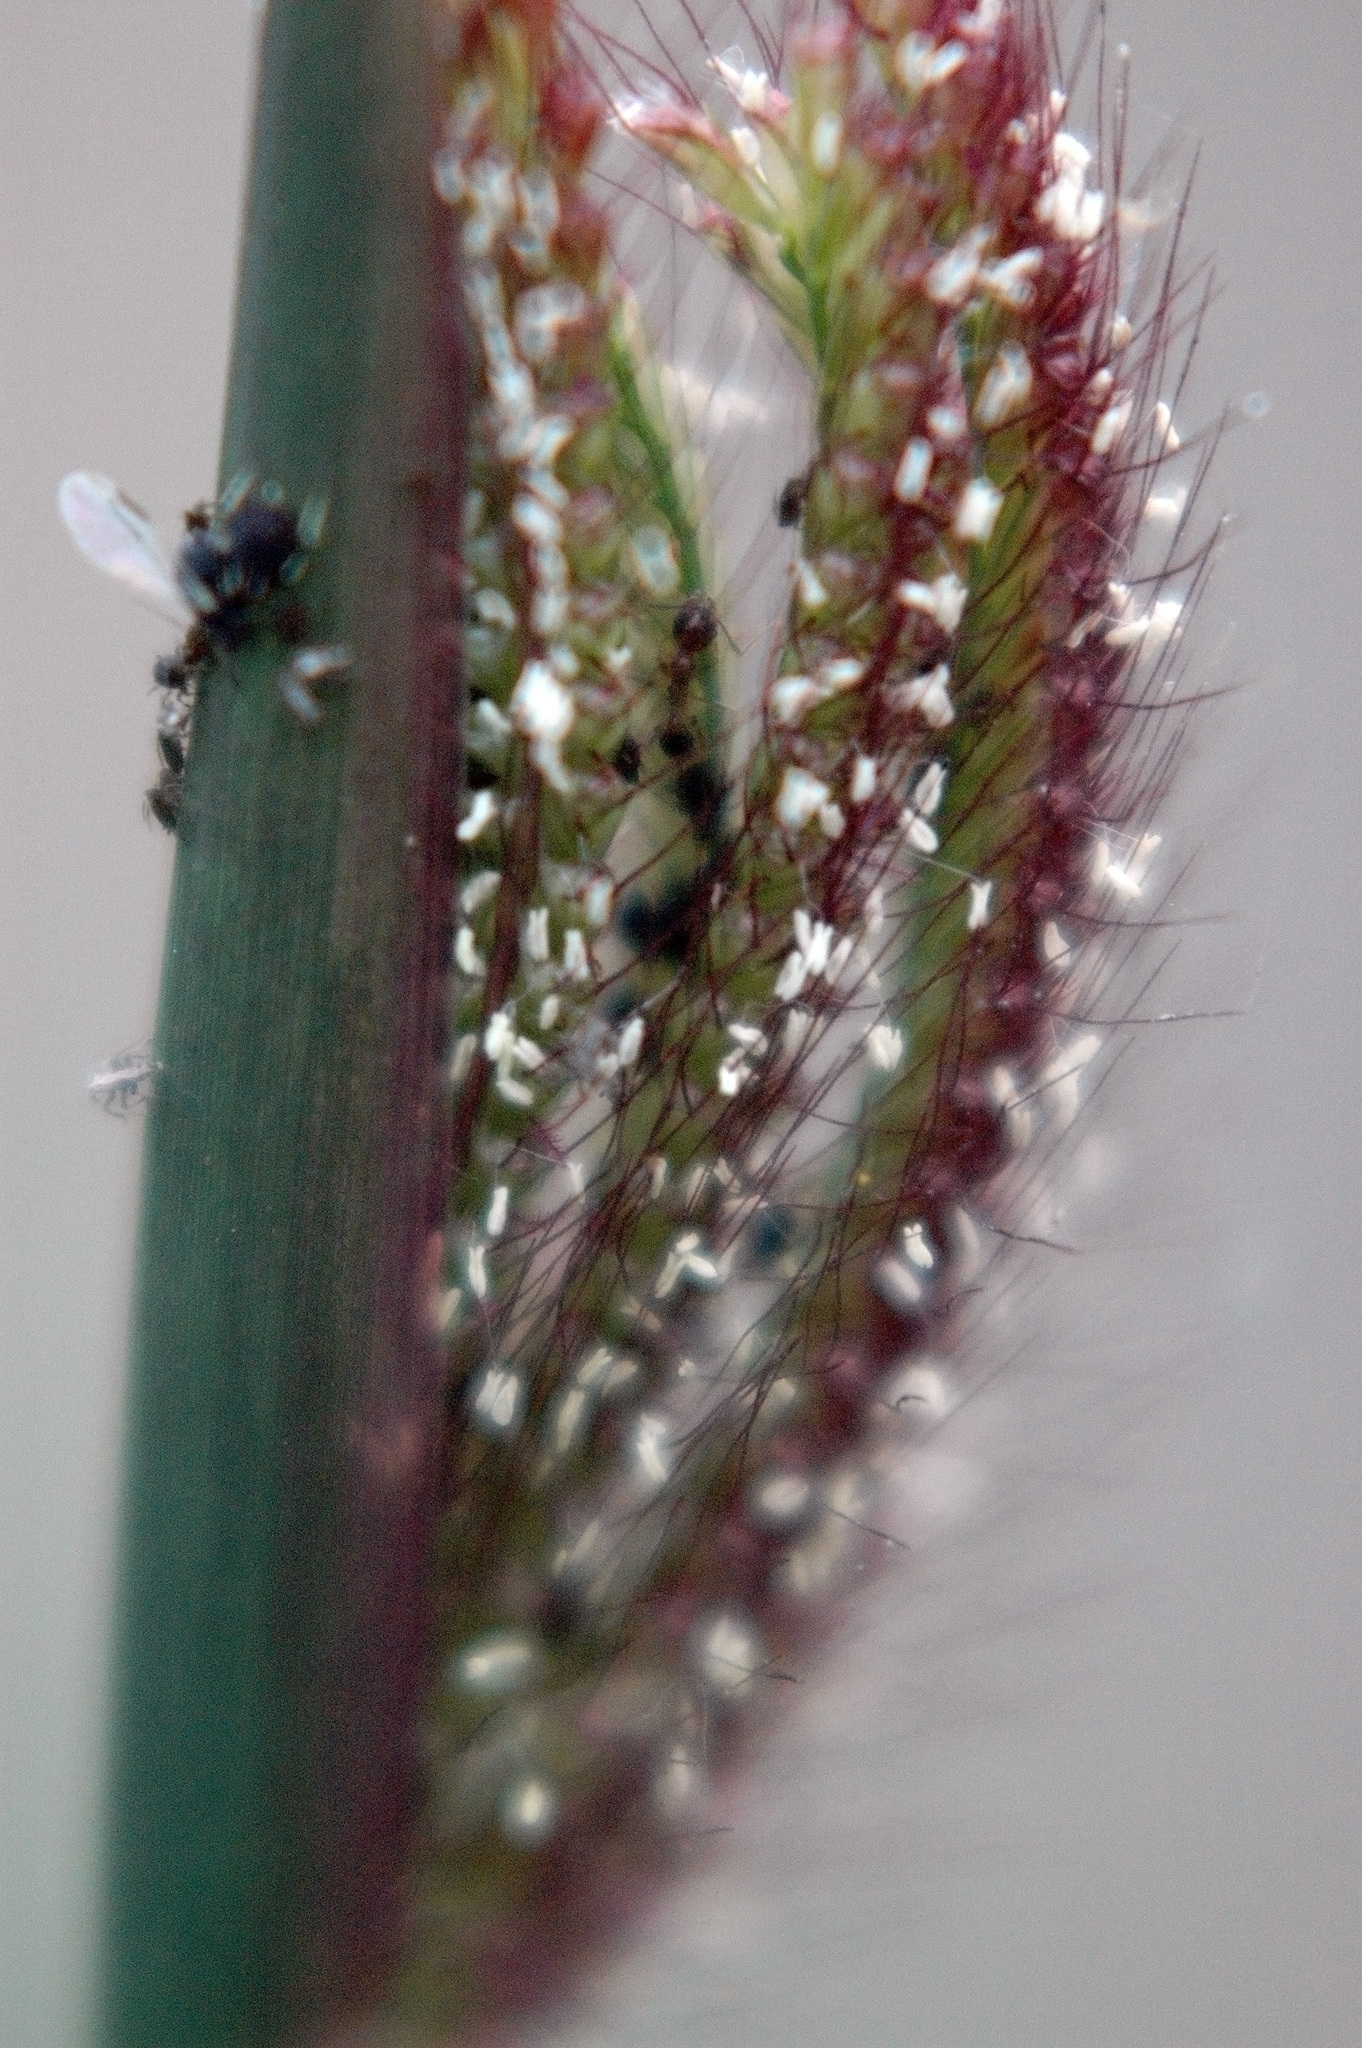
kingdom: Plantae
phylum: Tracheophyta
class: Liliopsida
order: Poales
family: Poaceae
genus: Chloris
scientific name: Chloris barbata
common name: Swollen fingergrass
